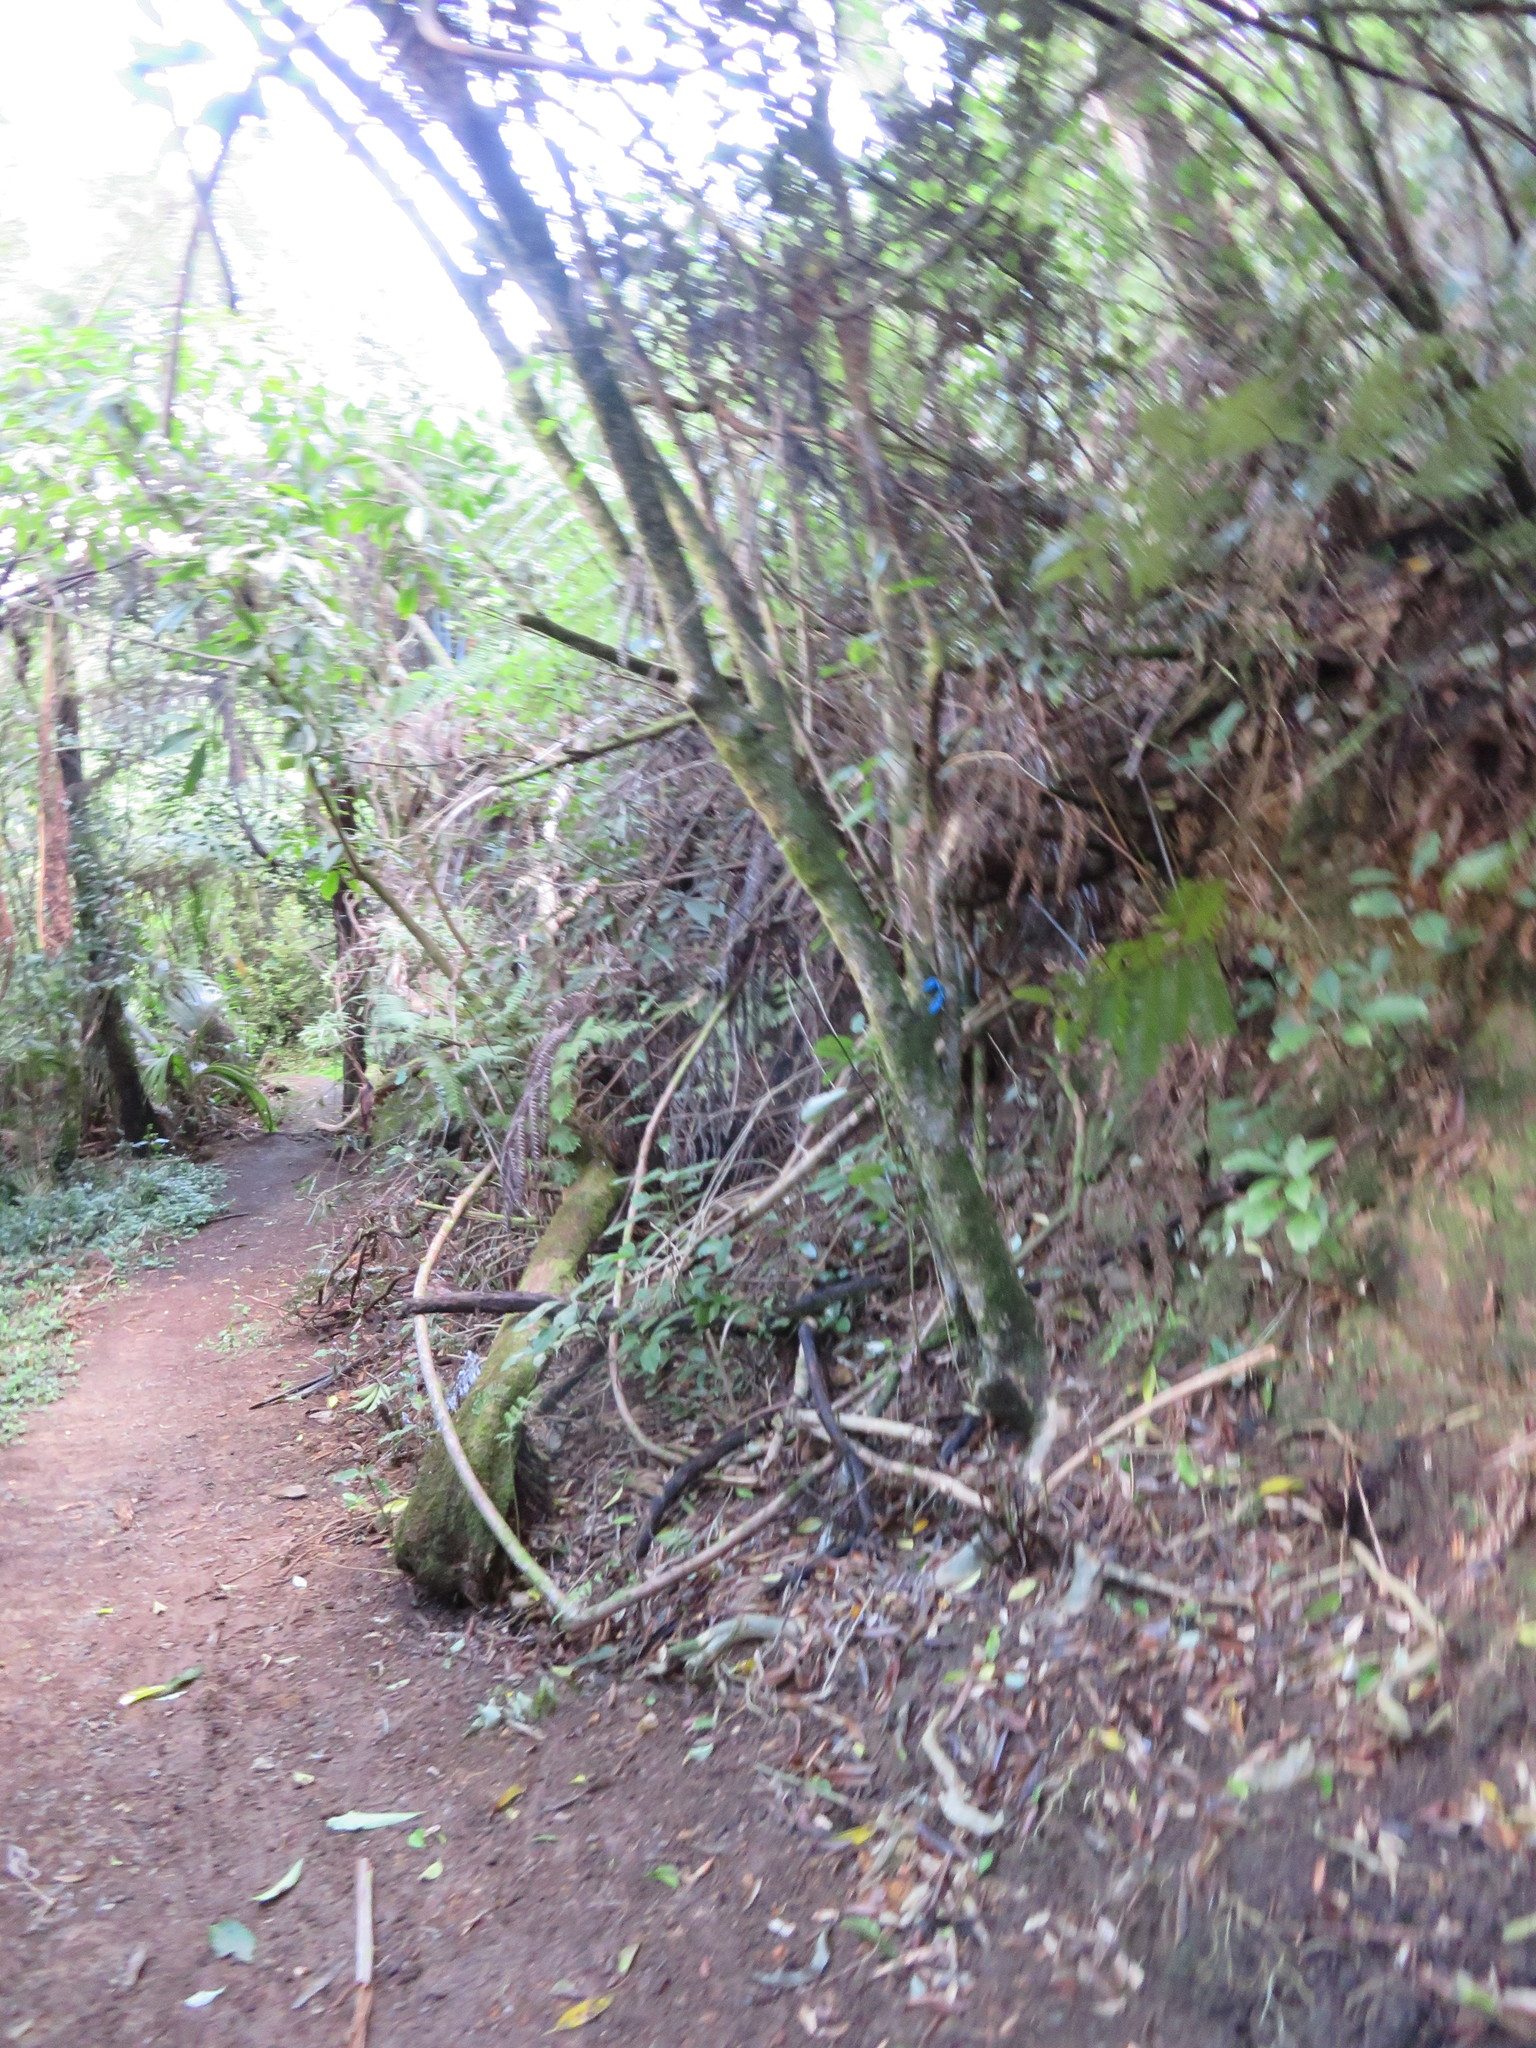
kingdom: Plantae
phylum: Tracheophyta
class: Polypodiopsida
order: Cyatheales
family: Cyatheaceae
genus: Alsophila
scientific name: Alsophila dealbata
